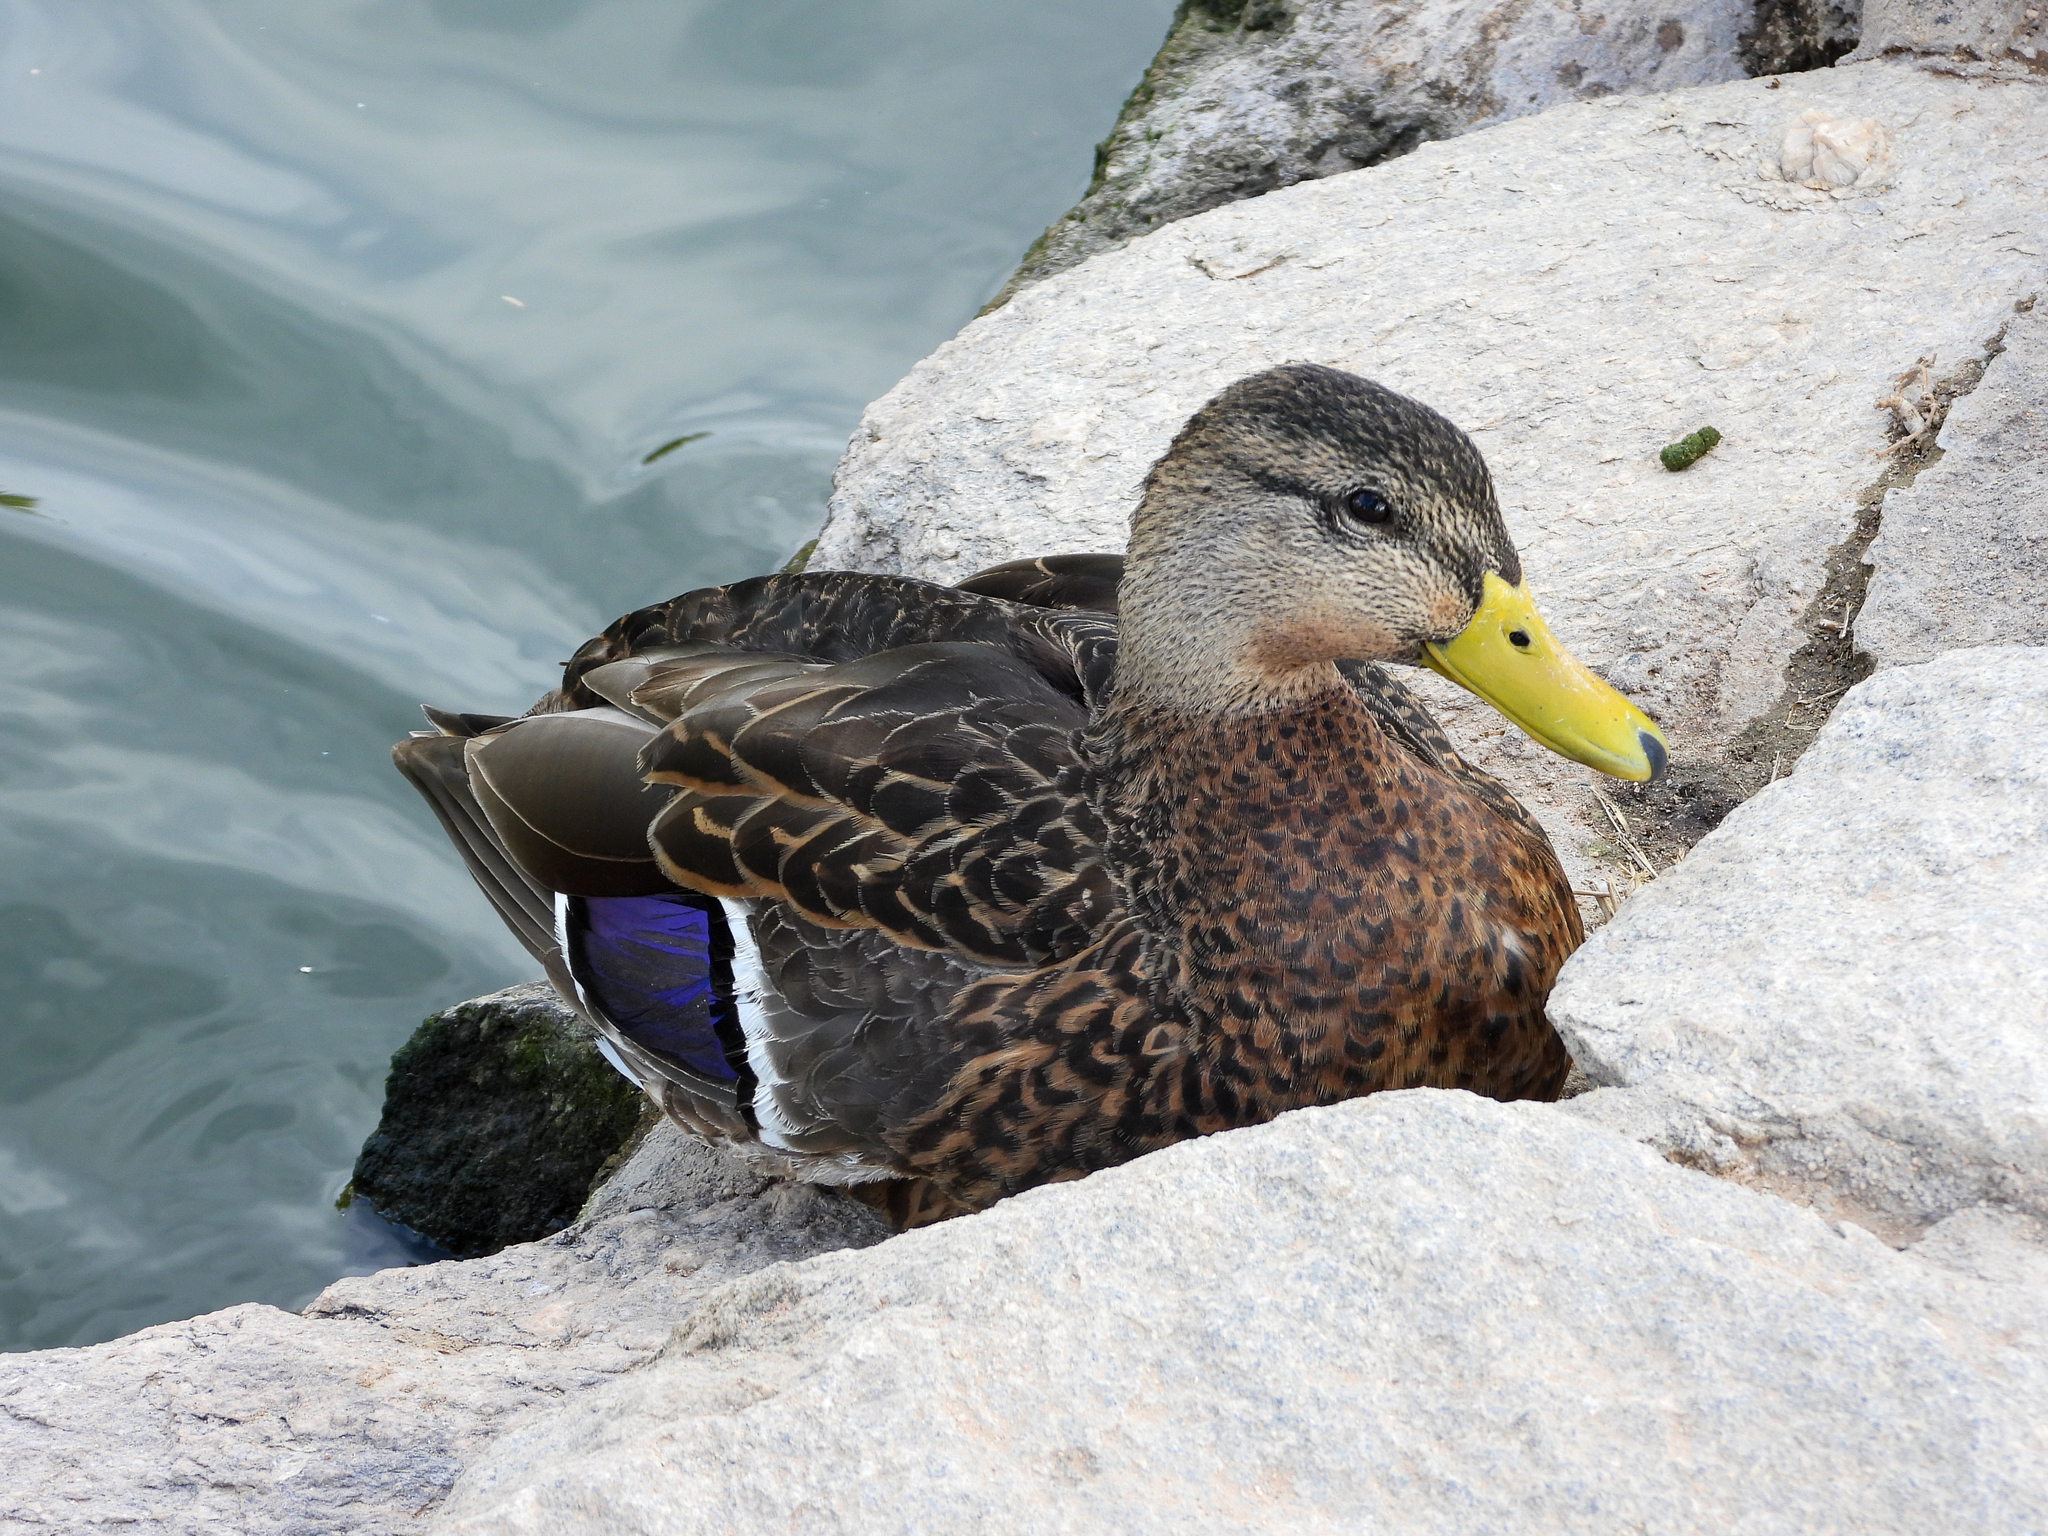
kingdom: Animalia
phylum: Chordata
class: Aves
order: Anseriformes
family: Anatidae
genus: Anas
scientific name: Anas diazi
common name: Mexican duck
